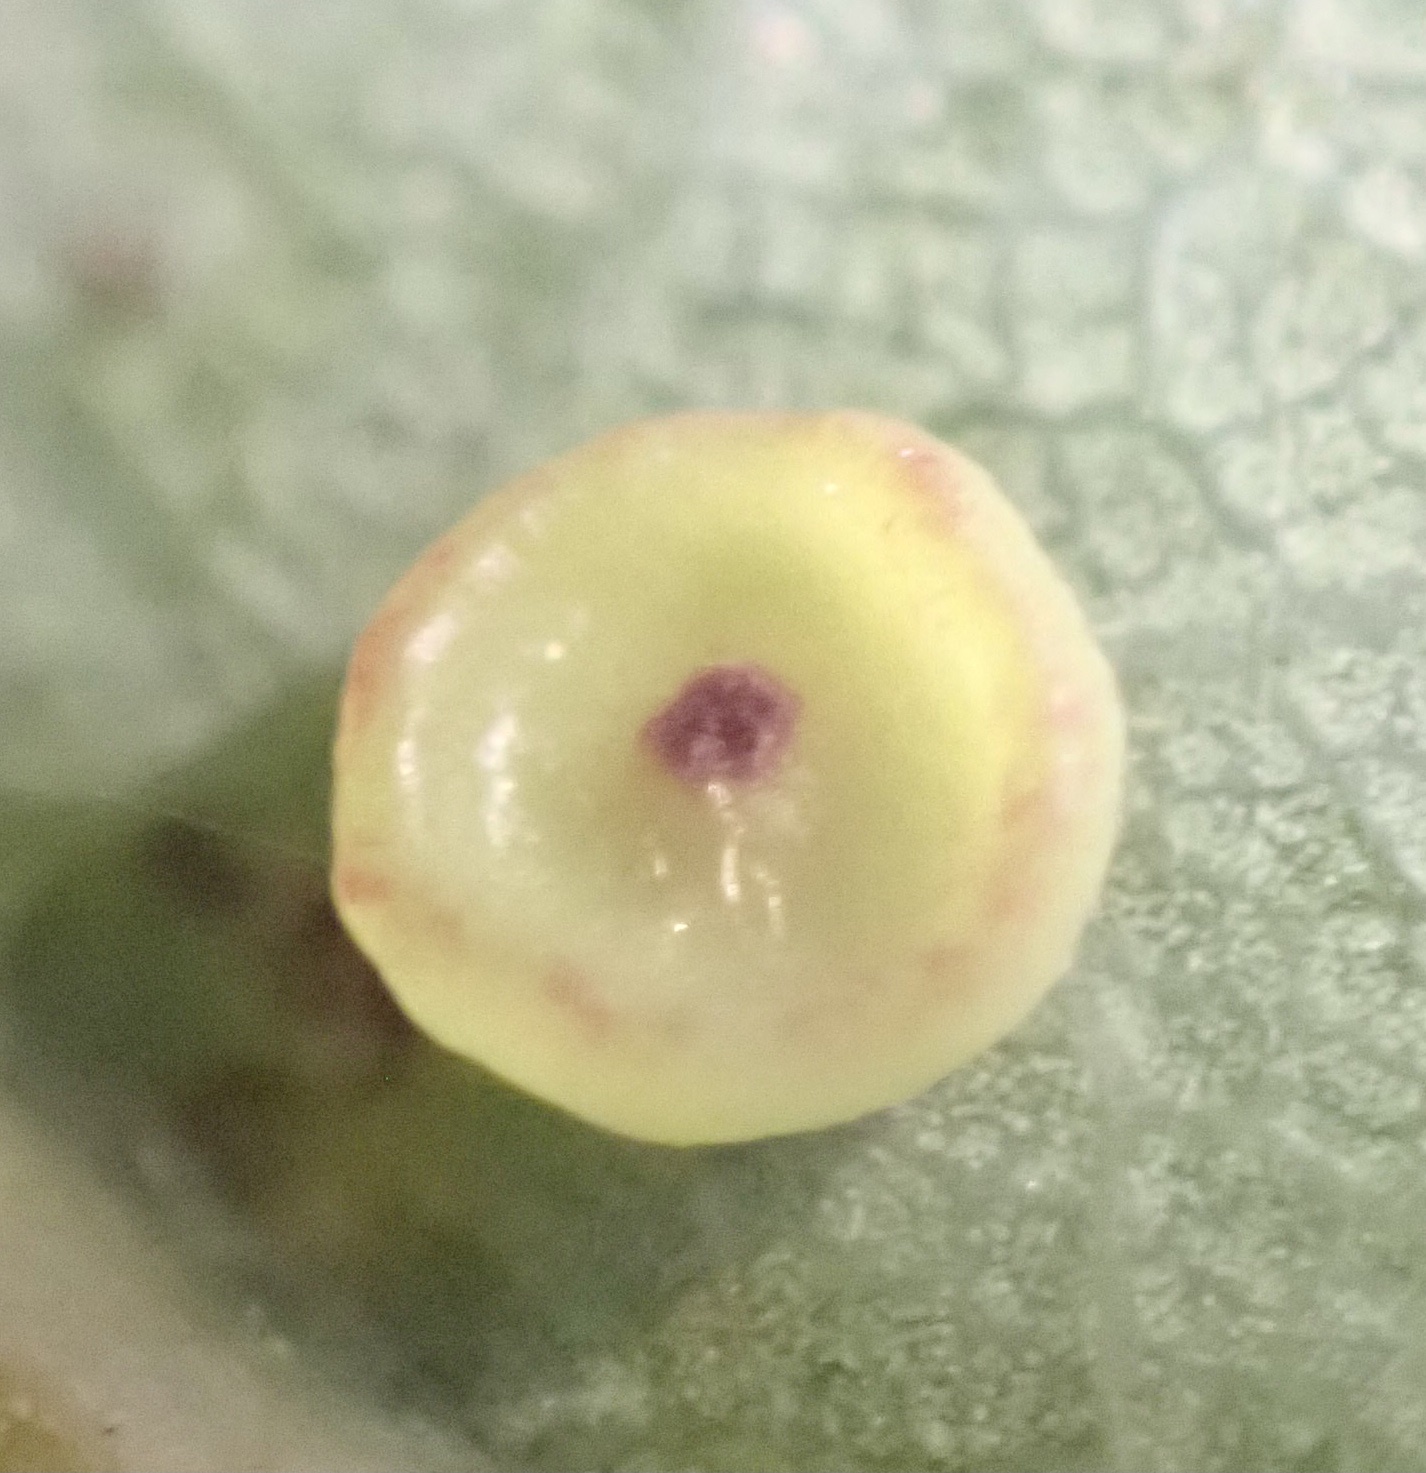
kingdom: Animalia
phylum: Arthropoda
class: Insecta
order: Hymenoptera
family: Cynipidae
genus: Neuroterus
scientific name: Neuroterus albipes
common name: Smooth spangle gall
